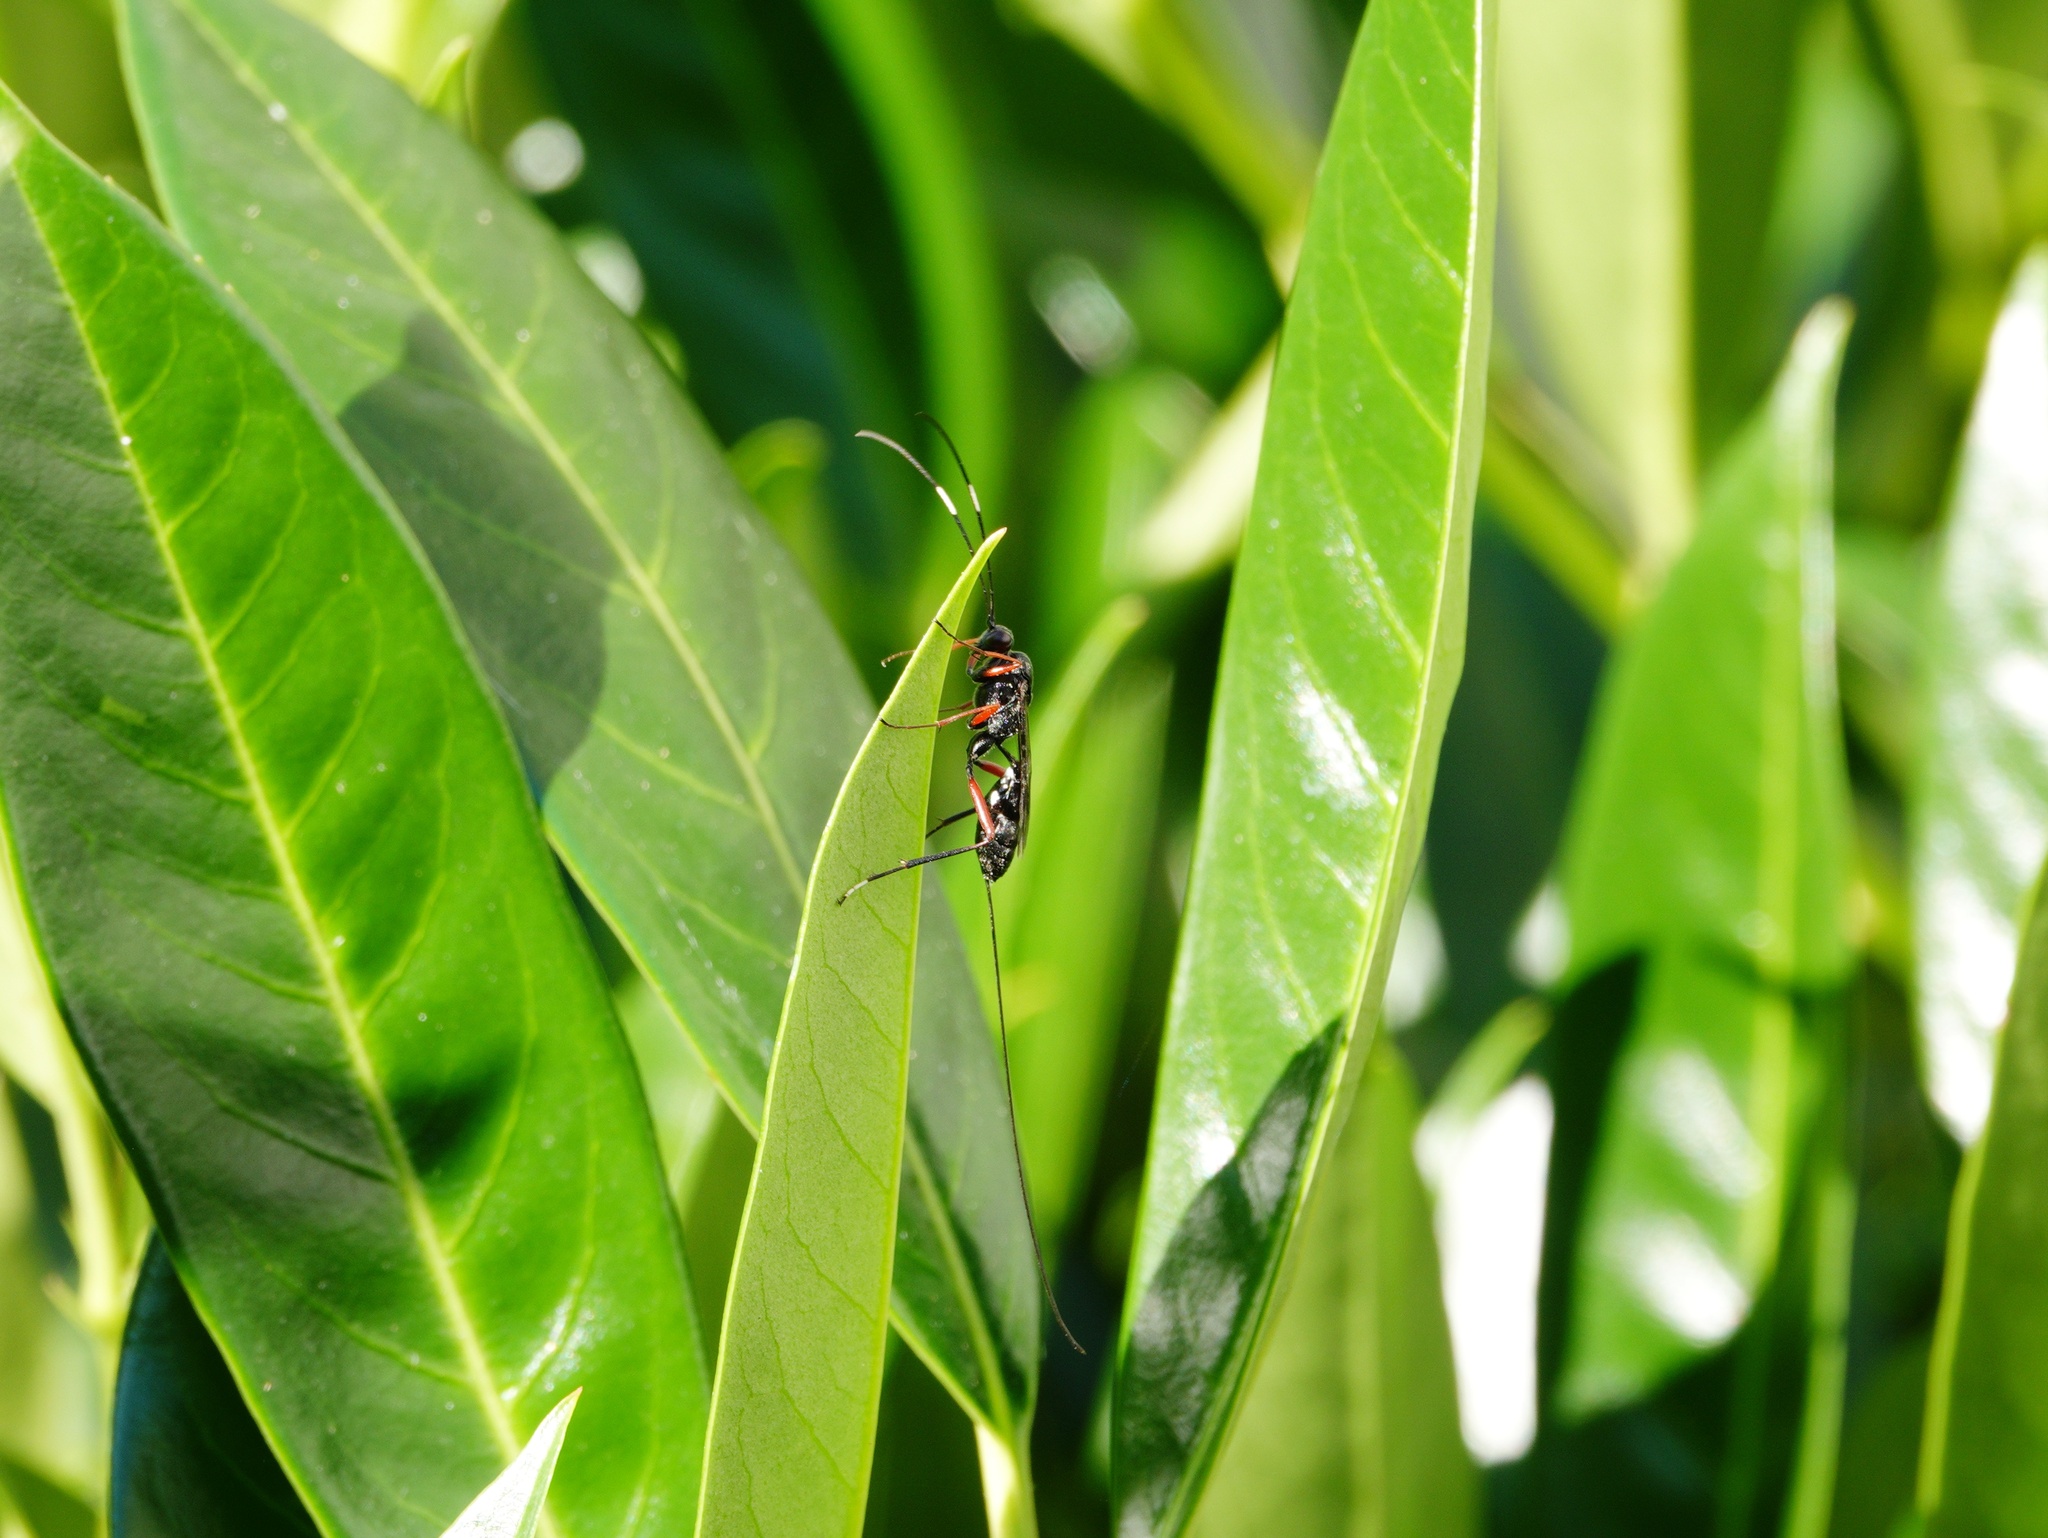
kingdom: Animalia
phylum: Arthropoda
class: Insecta
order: Hymenoptera
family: Ichneumonidae
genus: Stenarella
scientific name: Stenarella domator
